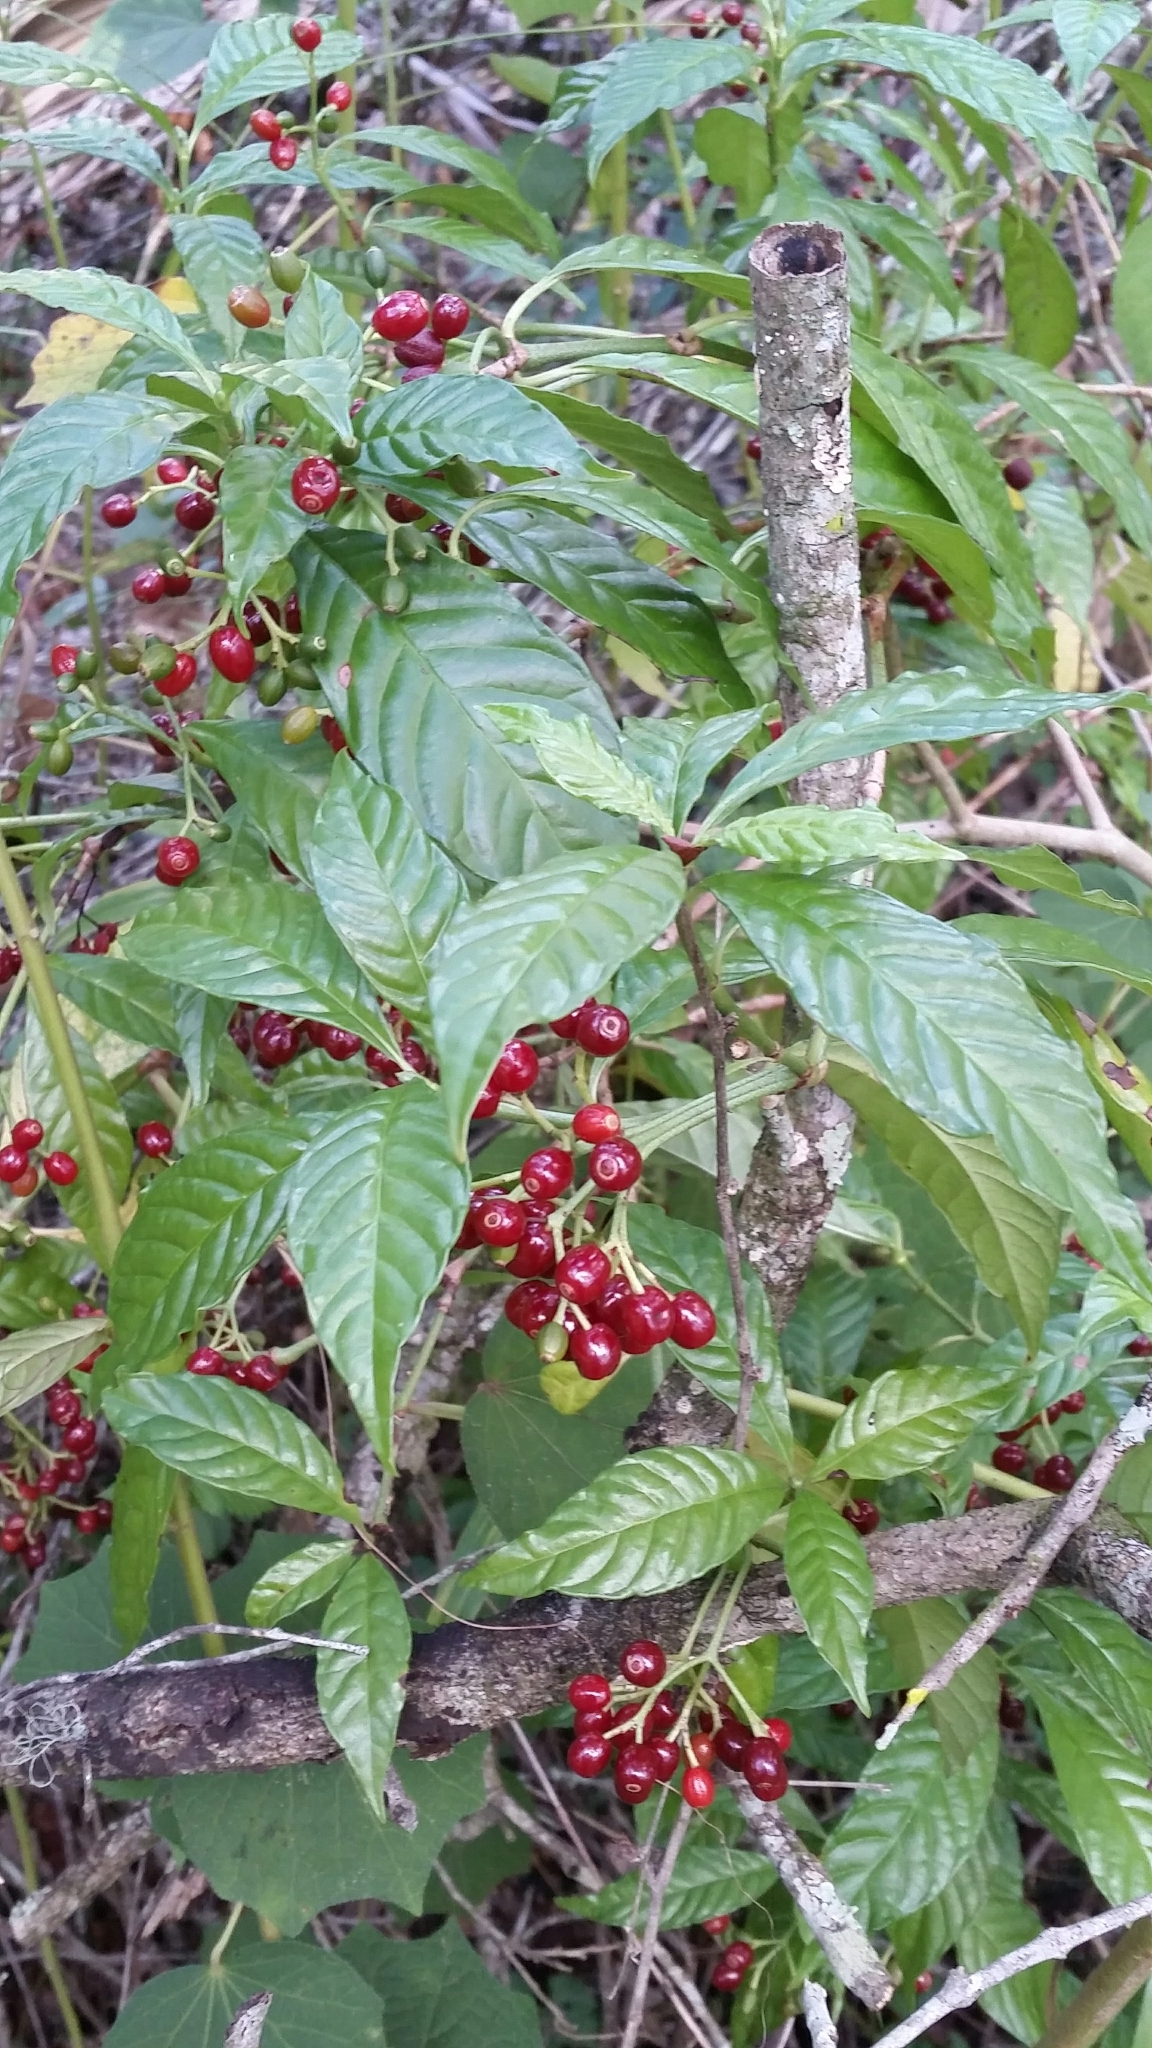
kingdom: Plantae
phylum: Tracheophyta
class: Magnoliopsida
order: Gentianales
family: Rubiaceae
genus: Psychotria
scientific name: Psychotria nervosa
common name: Bastard cankerberry
